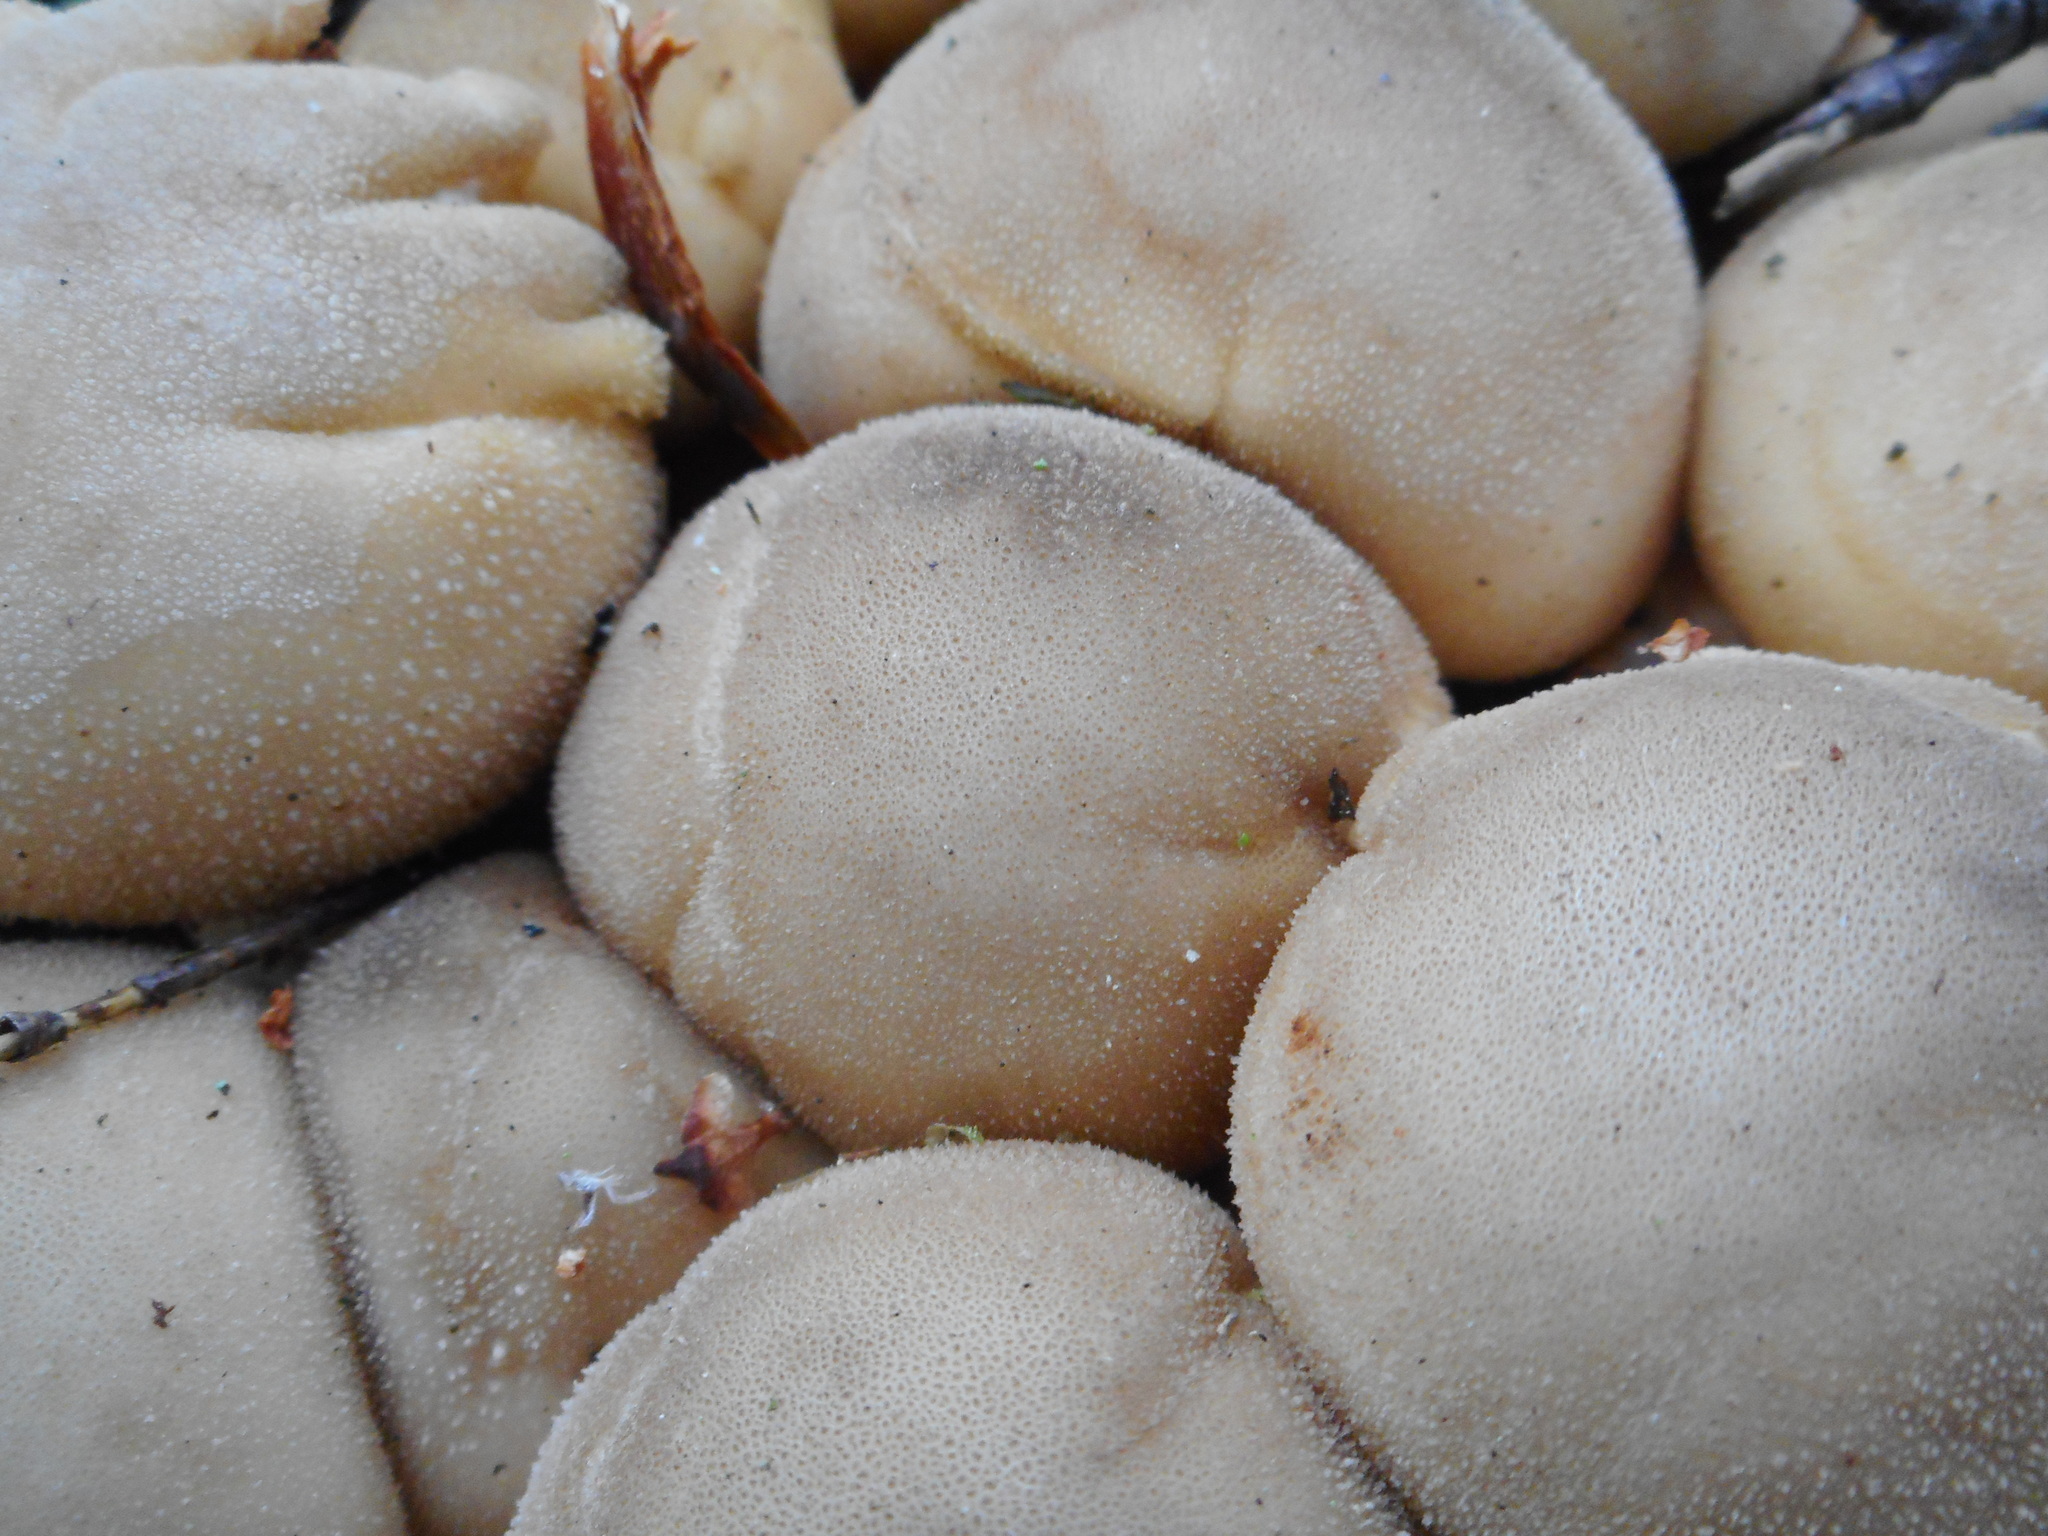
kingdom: Fungi
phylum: Basidiomycota
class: Agaricomycetes
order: Agaricales
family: Lycoperdaceae
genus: Apioperdon
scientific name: Apioperdon pyriforme
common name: Pear-shaped puffball
